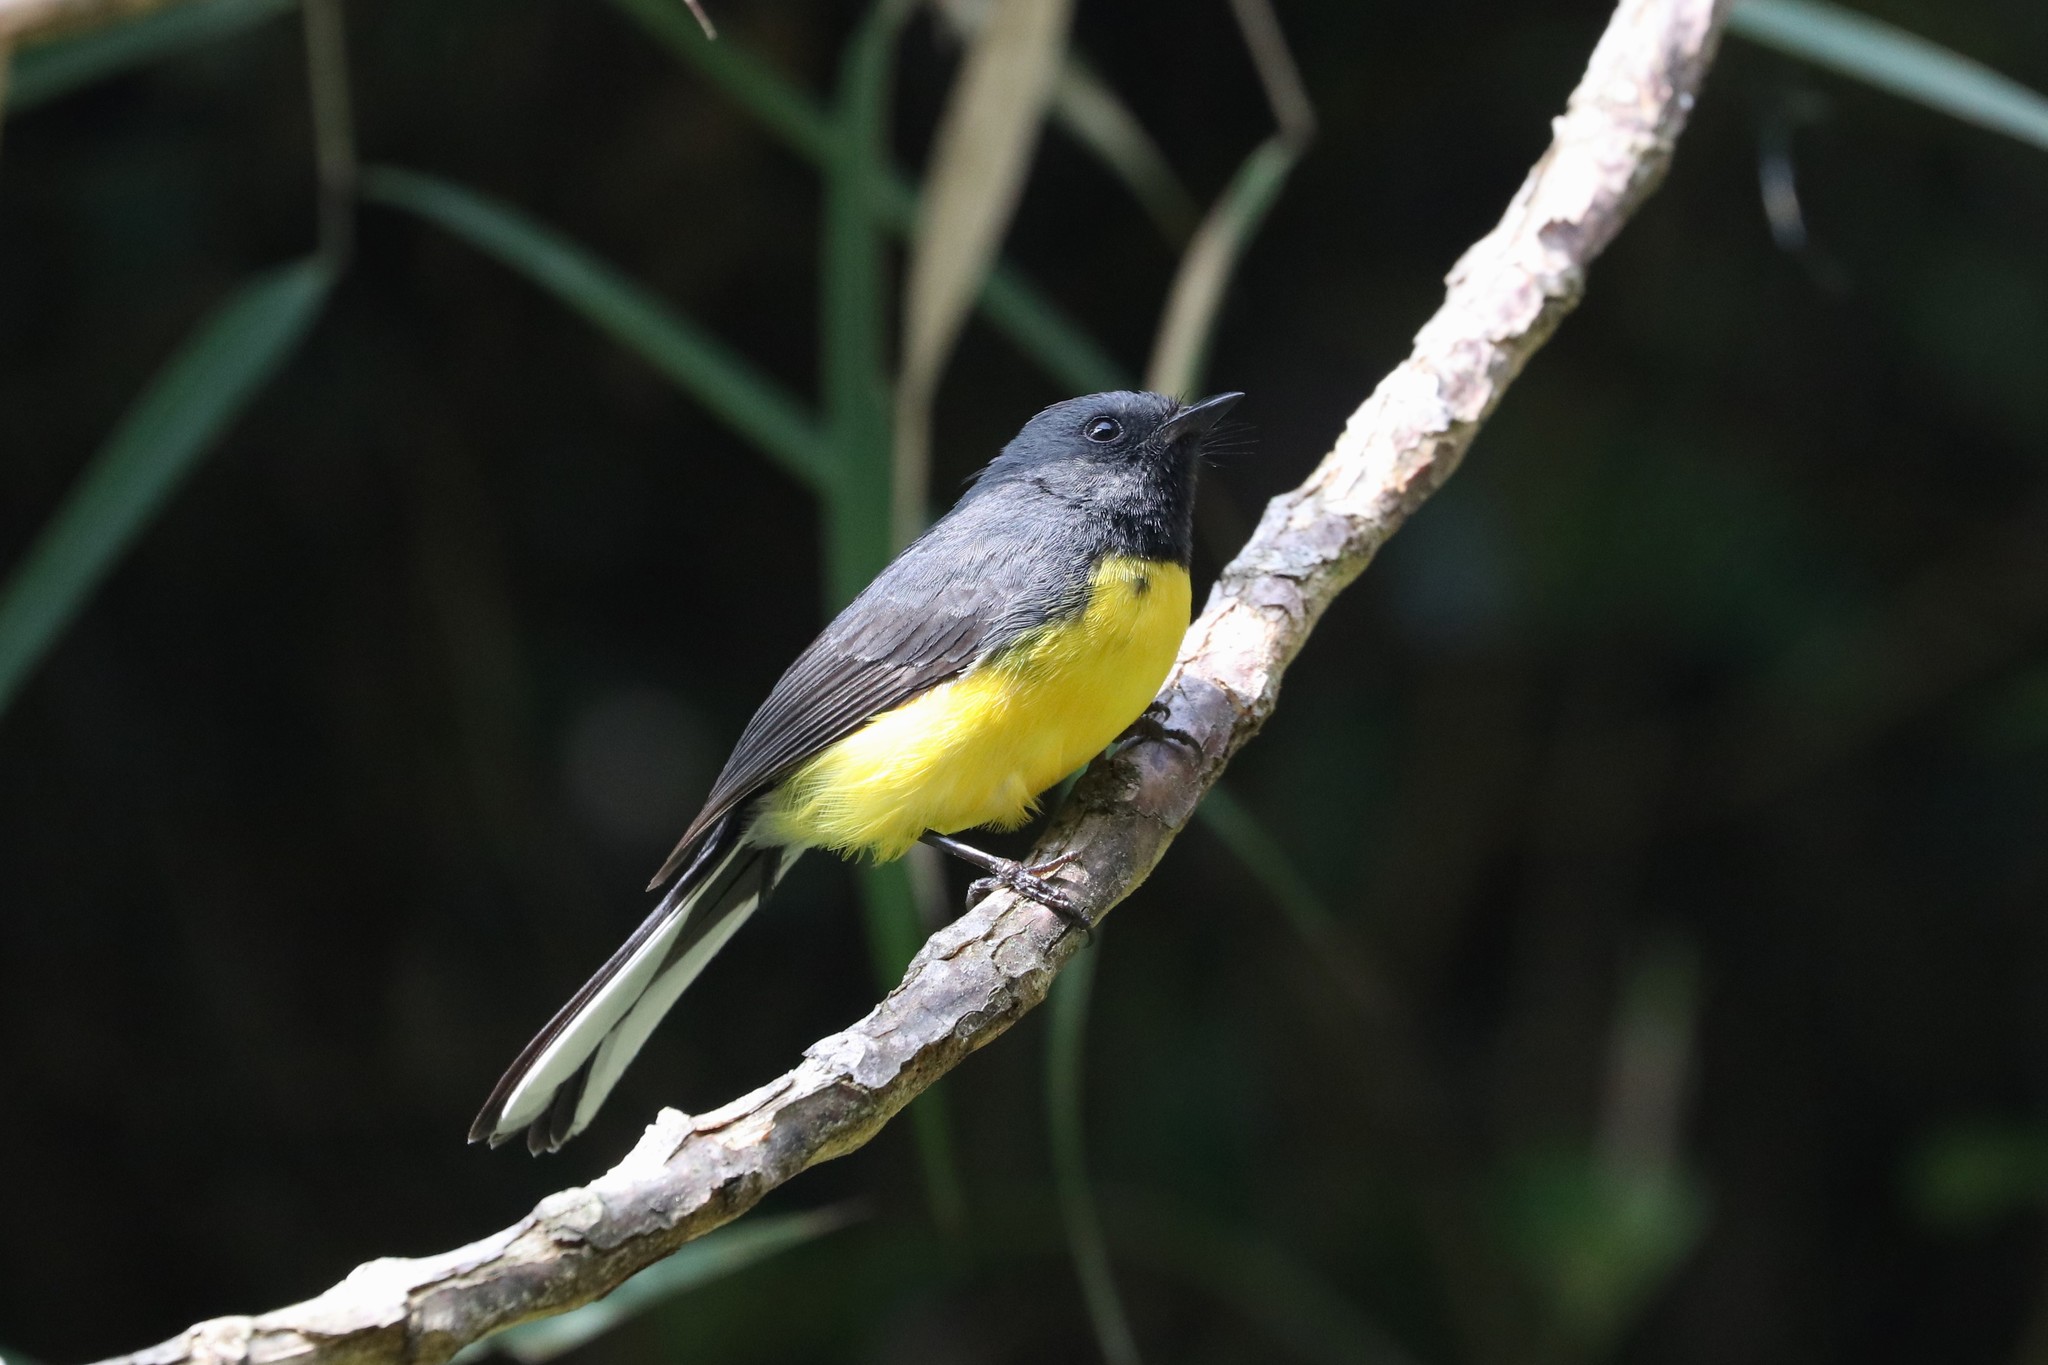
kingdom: Animalia
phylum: Chordata
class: Aves
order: Passeriformes
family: Parulidae
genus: Myioborus
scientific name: Myioborus miniatus
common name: Slate-throated redstart
